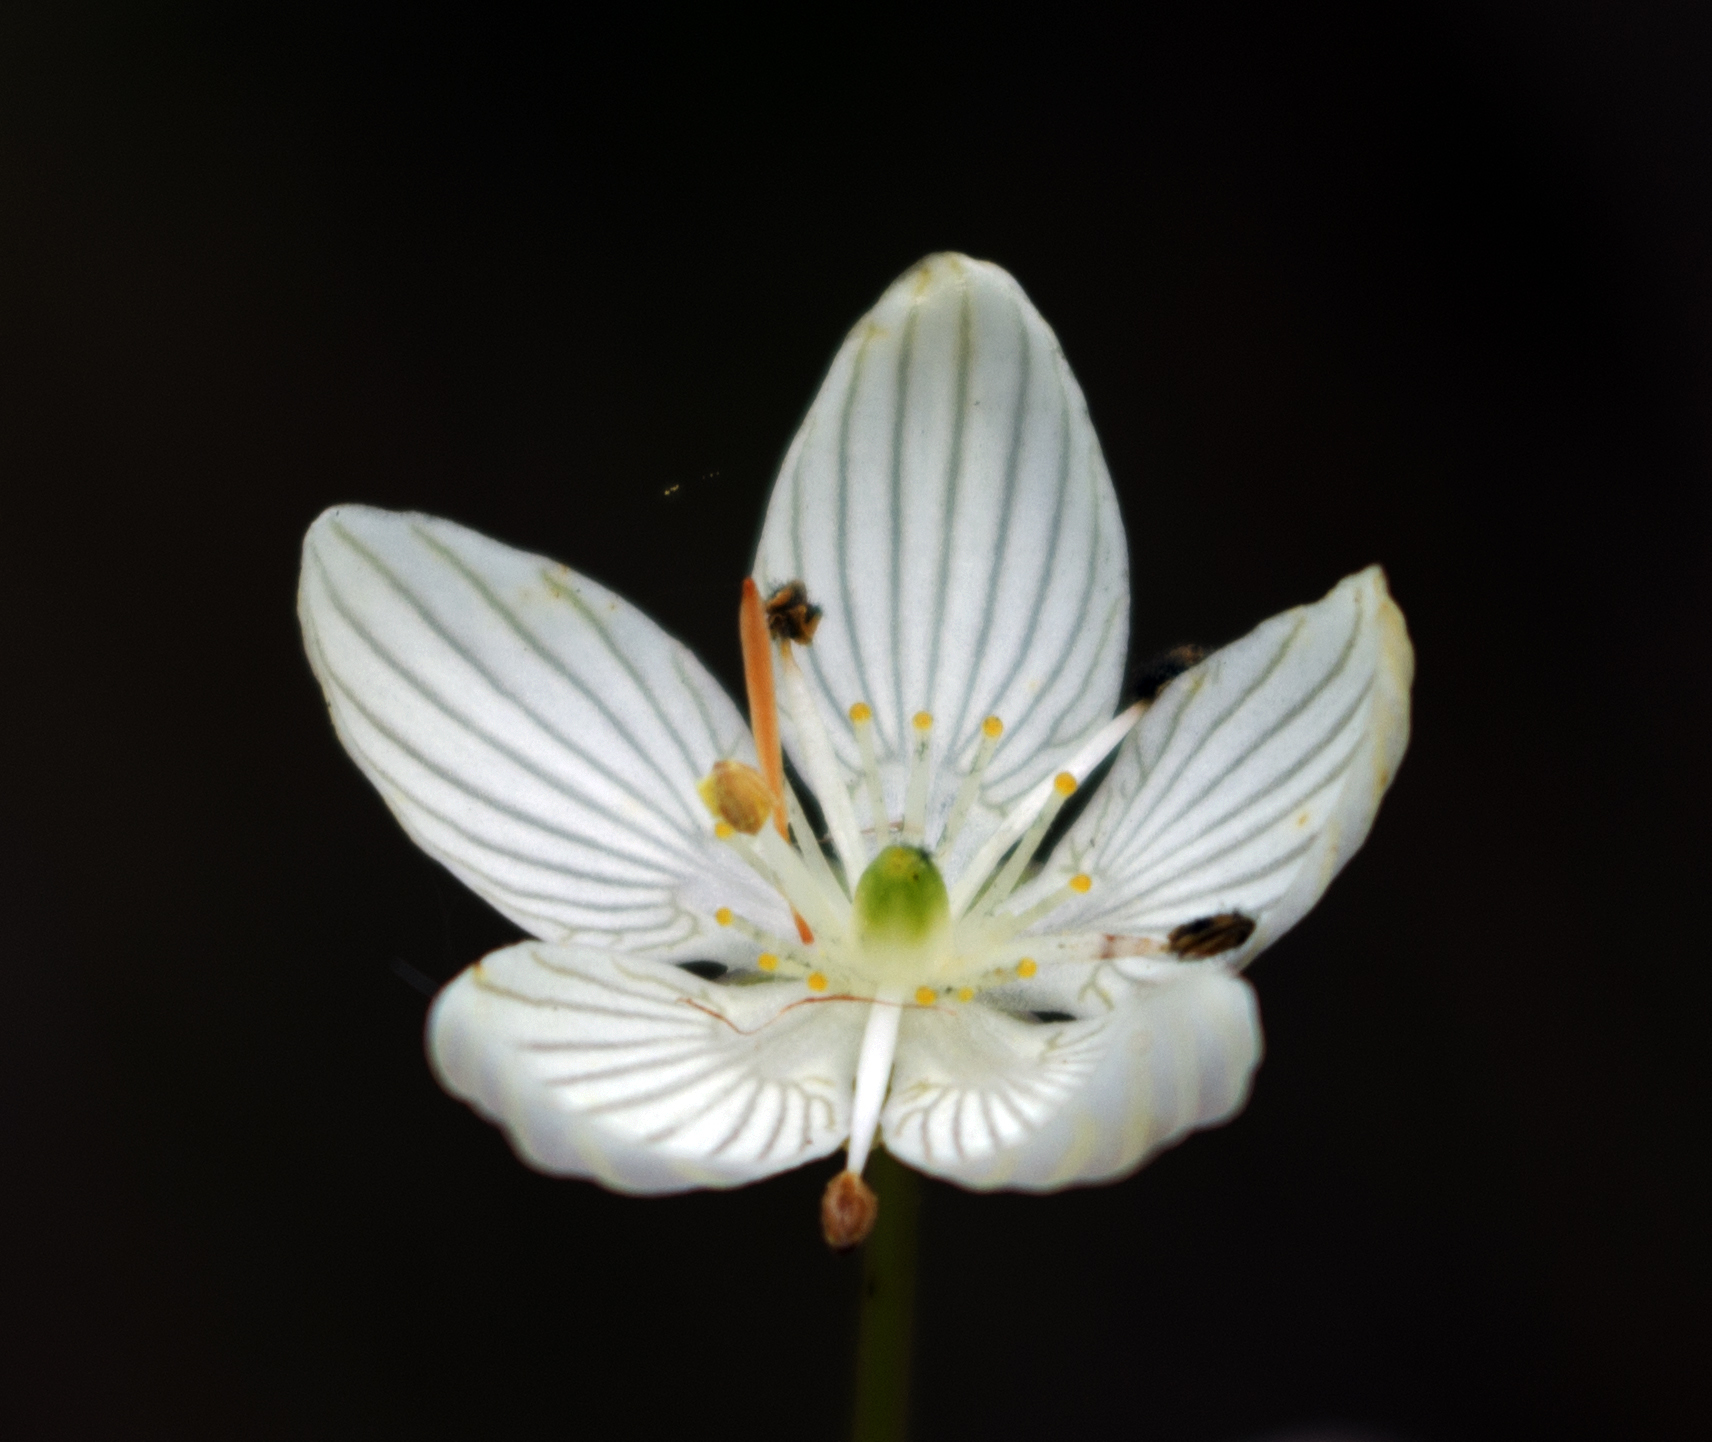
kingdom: Plantae
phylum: Tracheophyta
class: Magnoliopsida
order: Celastrales
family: Parnassiaceae
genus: Parnassia
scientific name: Parnassia glauca
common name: American grass-of-parnassus
